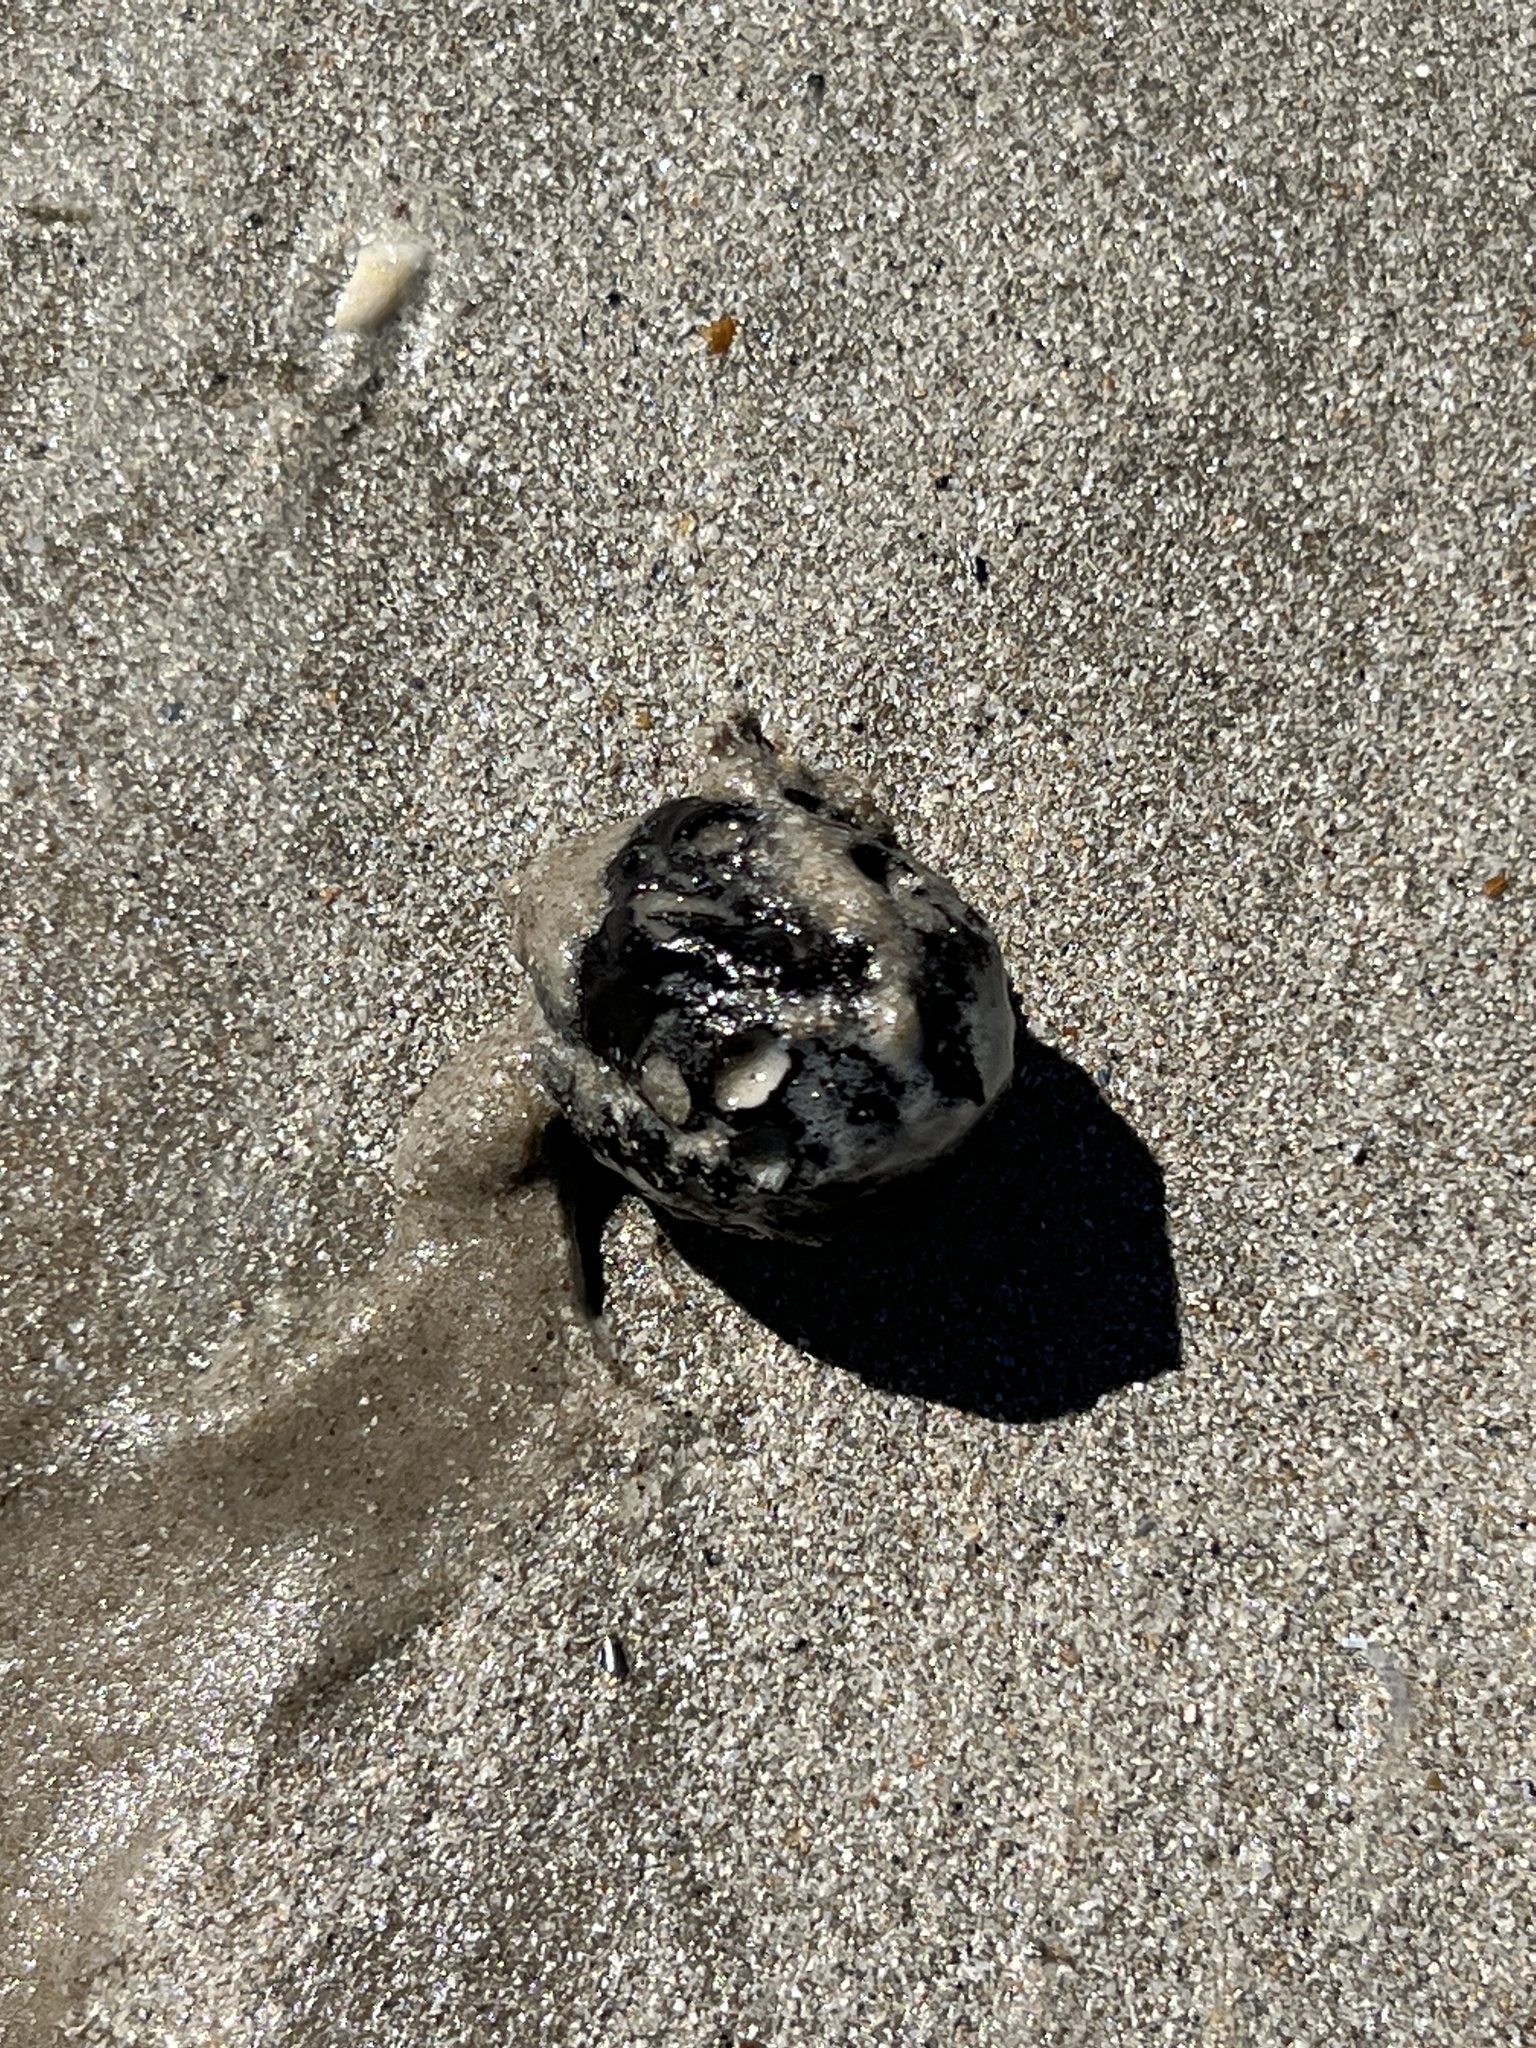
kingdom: Plantae
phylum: Tracheophyta
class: Magnoliopsida
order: Malpighiales
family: Humiriaceae
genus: Sacoglottis
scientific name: Sacoglottis amazonica
